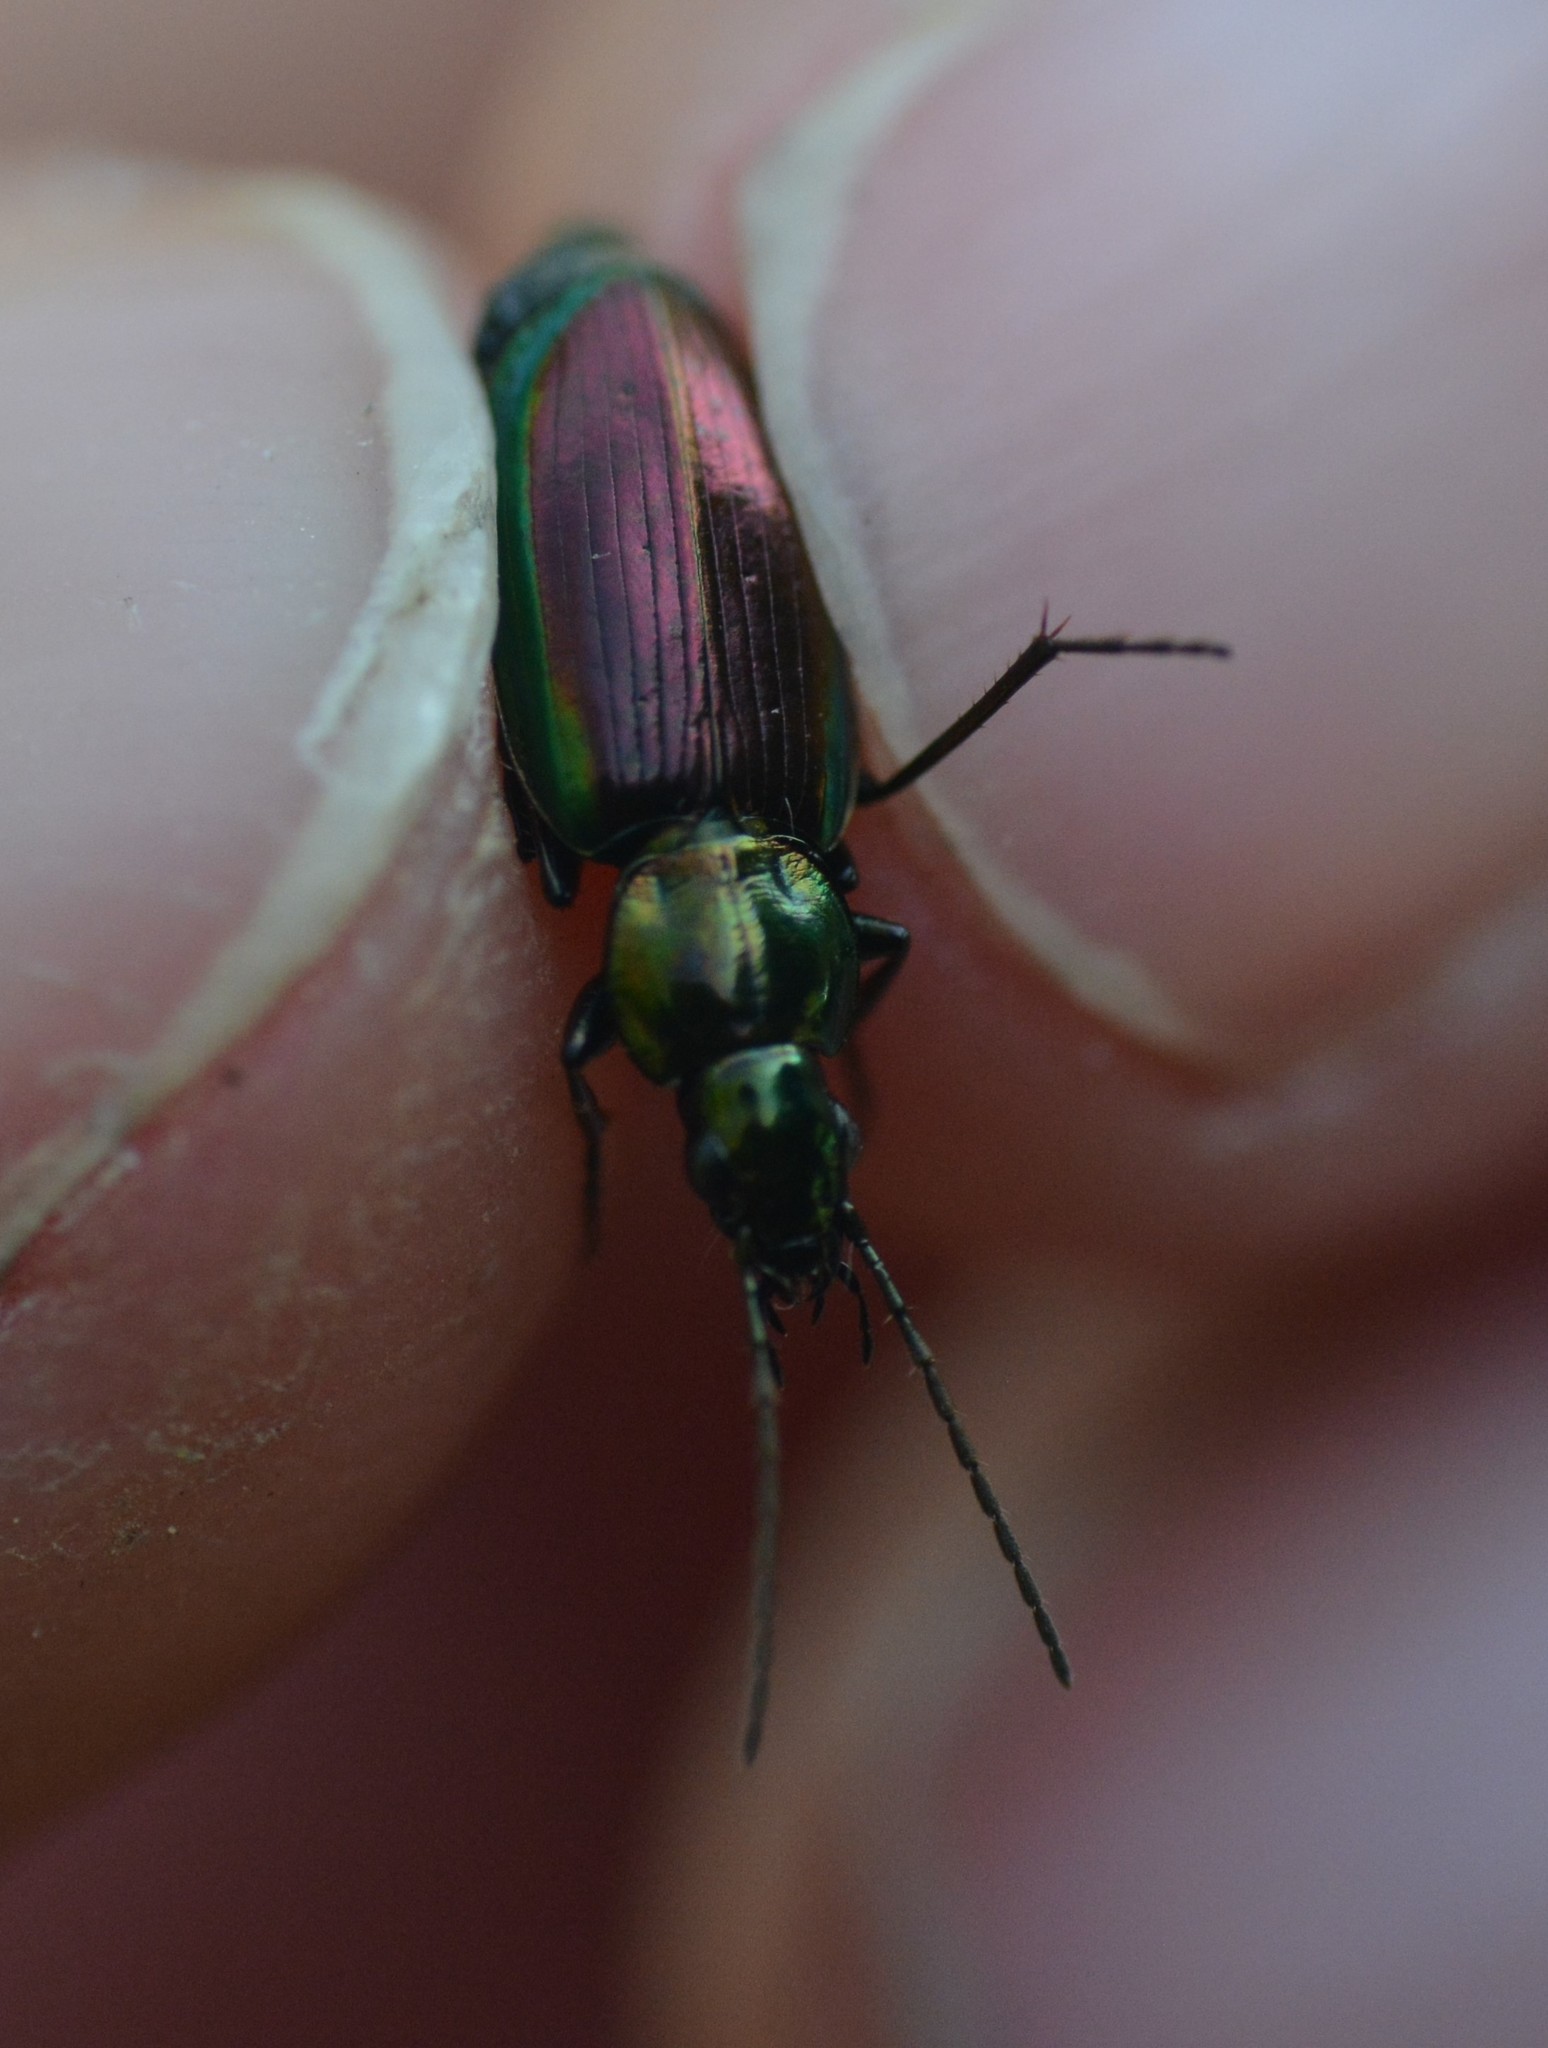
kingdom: Animalia
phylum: Arthropoda
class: Insecta
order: Coleoptera
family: Carabidae
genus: Agonum
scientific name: Agonum cupripenne
